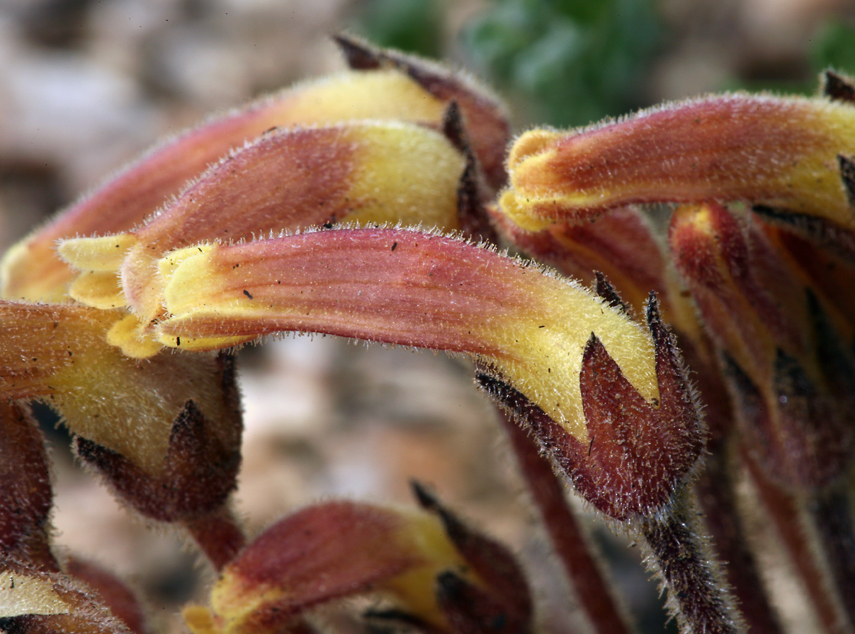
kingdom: Plantae
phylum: Tracheophyta
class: Magnoliopsida
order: Lamiales
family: Orobanchaceae
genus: Aphyllon
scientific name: Aphyllon franciscanum
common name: San francisco broomrape
